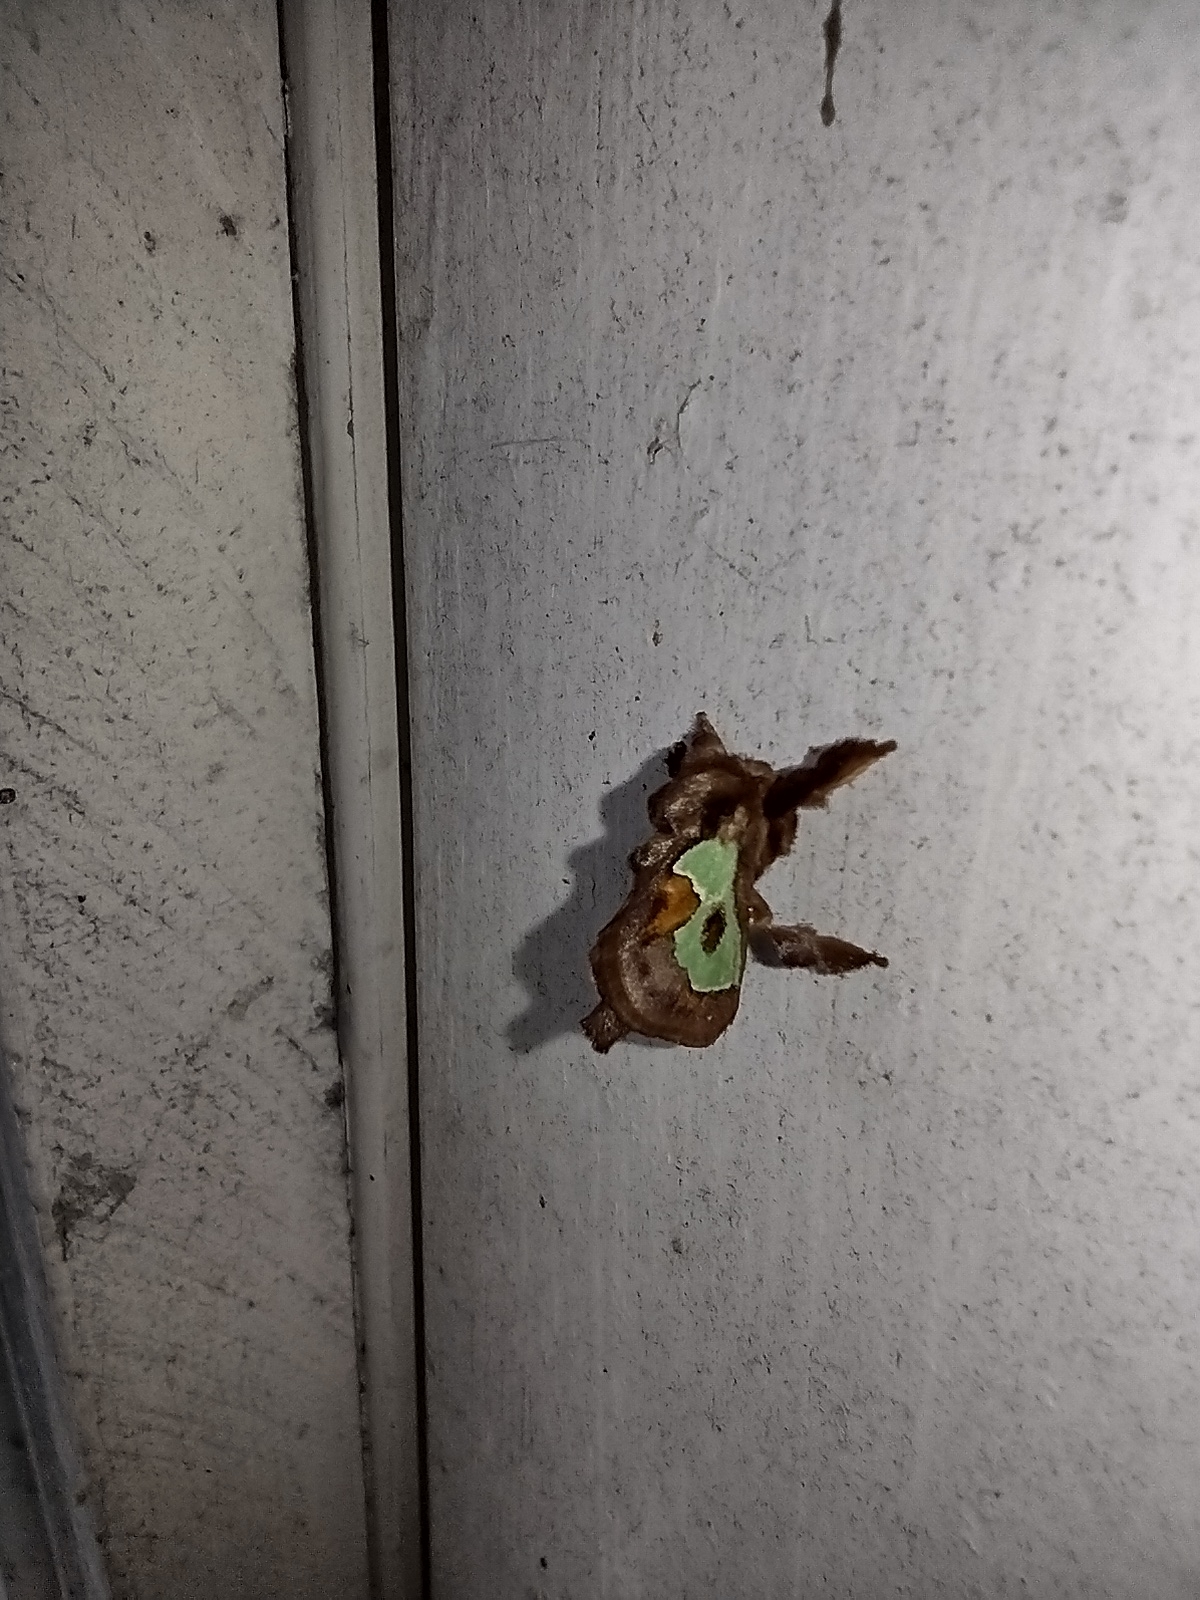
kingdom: Animalia
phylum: Arthropoda
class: Insecta
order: Lepidoptera
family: Limacodidae
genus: Euclea
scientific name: Euclea delphinii
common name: Spiny oak-slug moth
